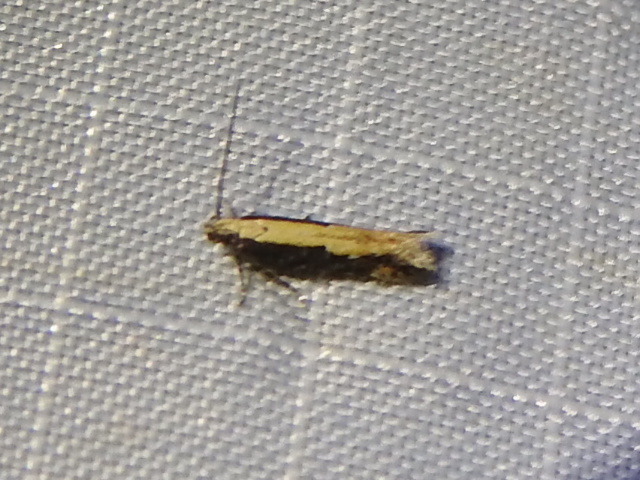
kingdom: Animalia
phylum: Arthropoda
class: Insecta
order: Lepidoptera
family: Gelechiidae
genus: Aristotelia
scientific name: Aristotelia corallina
